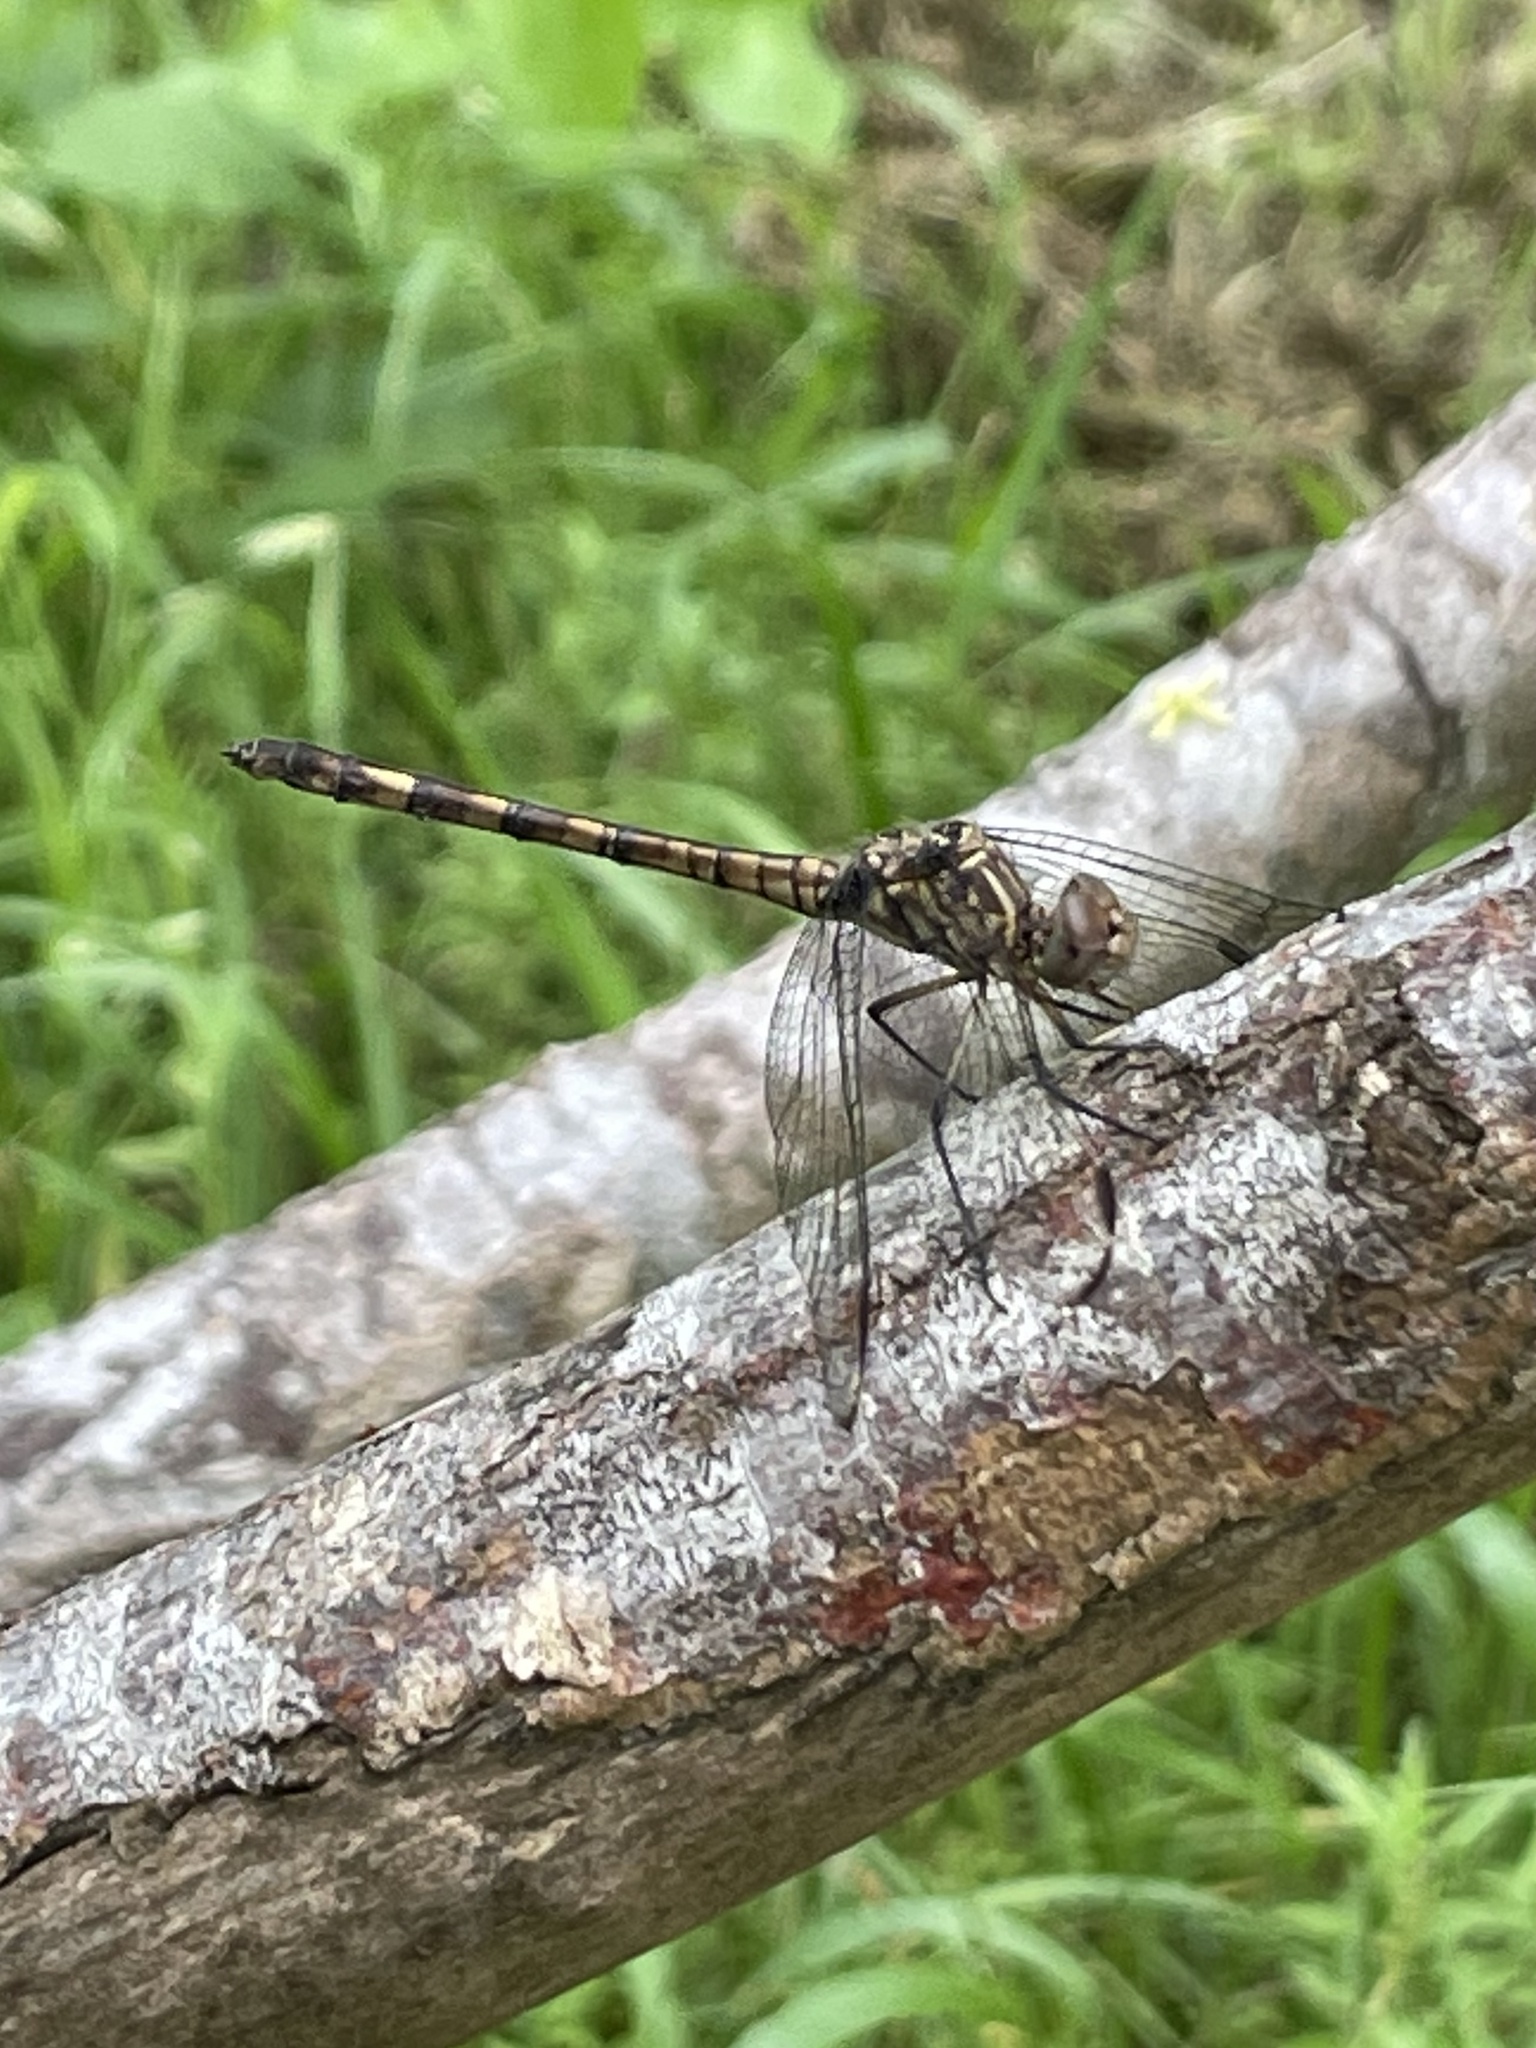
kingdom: Animalia
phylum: Arthropoda
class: Insecta
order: Odonata
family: Libellulidae
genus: Dythemis
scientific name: Dythemis nigrescens
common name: Black setwing
